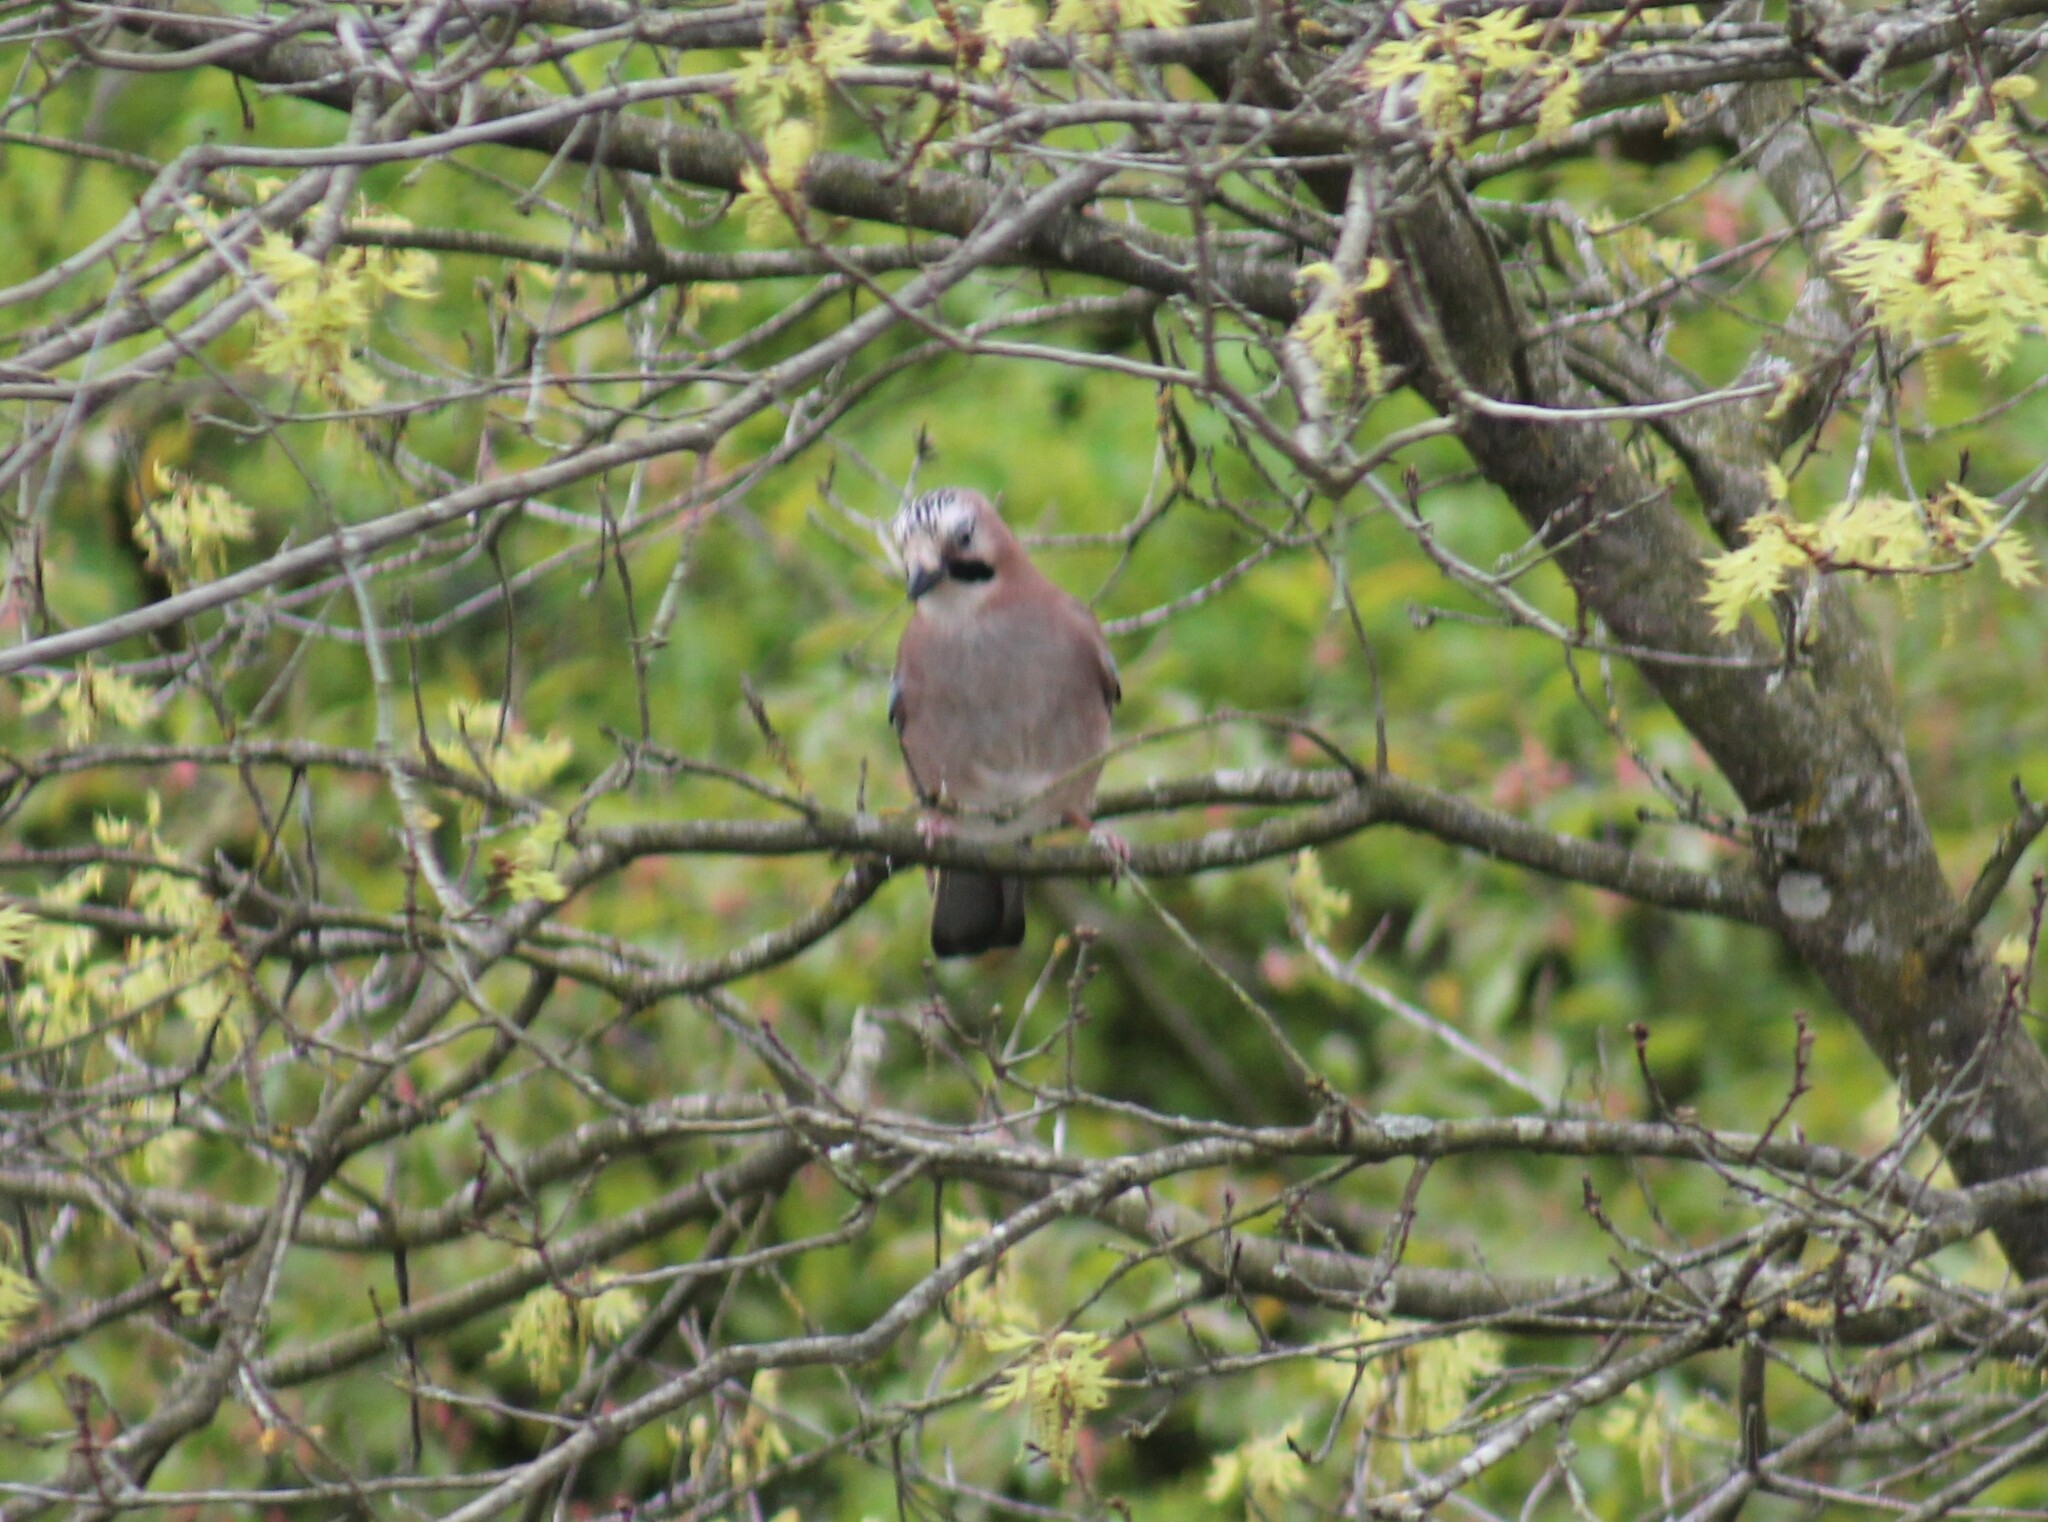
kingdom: Animalia
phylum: Chordata
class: Aves
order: Passeriformes
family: Corvidae
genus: Garrulus
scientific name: Garrulus glandarius
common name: Eurasian jay
